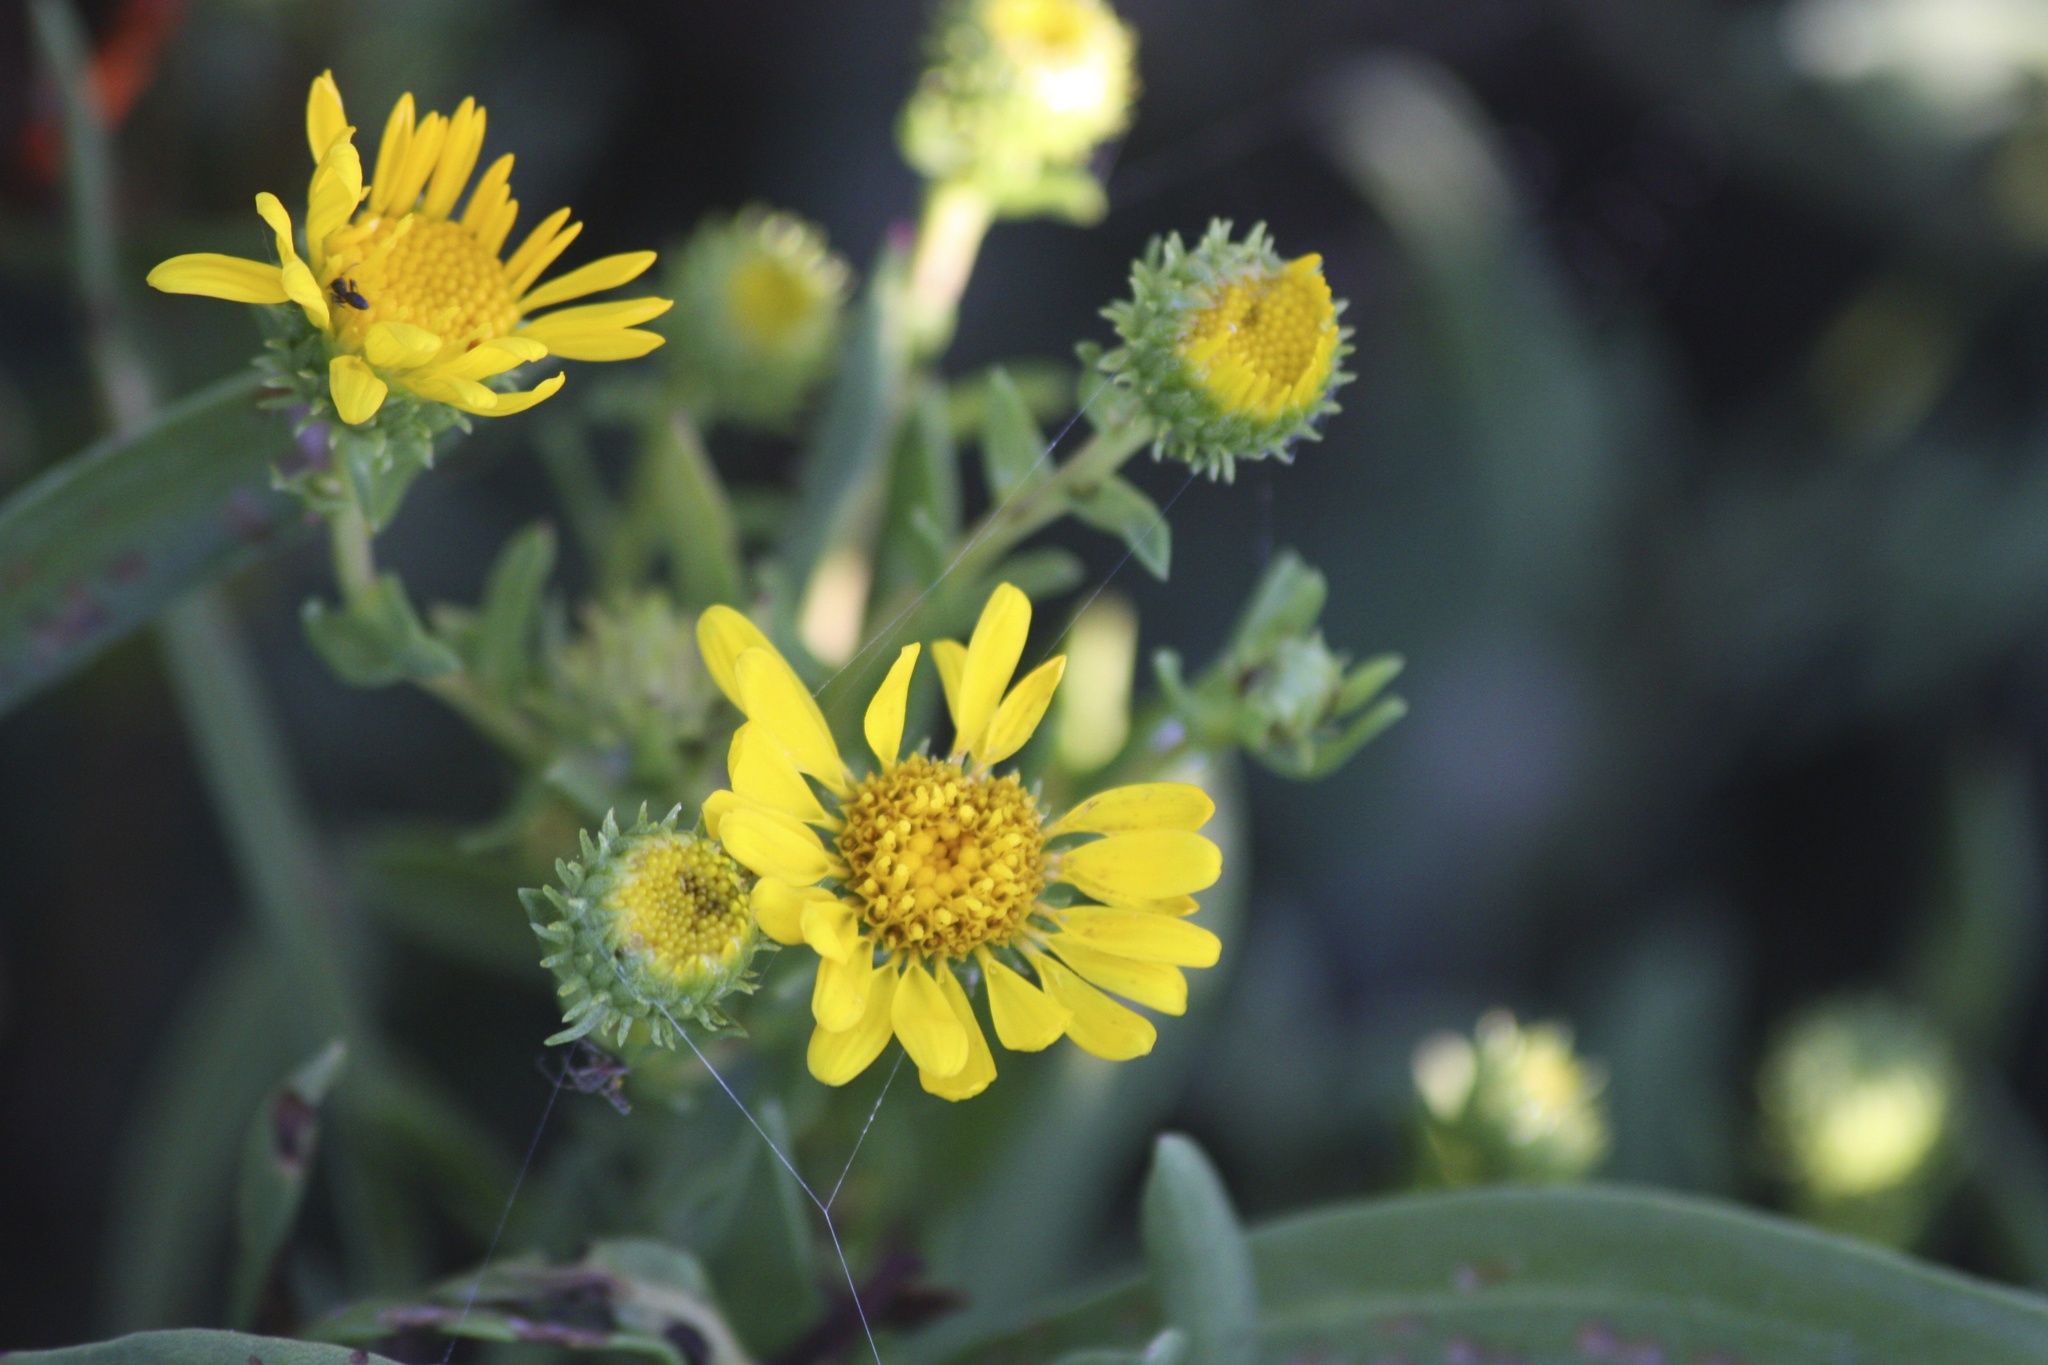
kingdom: Plantae
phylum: Tracheophyta
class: Magnoliopsida
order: Asterales
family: Asteraceae
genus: Grindelia
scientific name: Grindelia hirsutula
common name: Hairy gumweed
